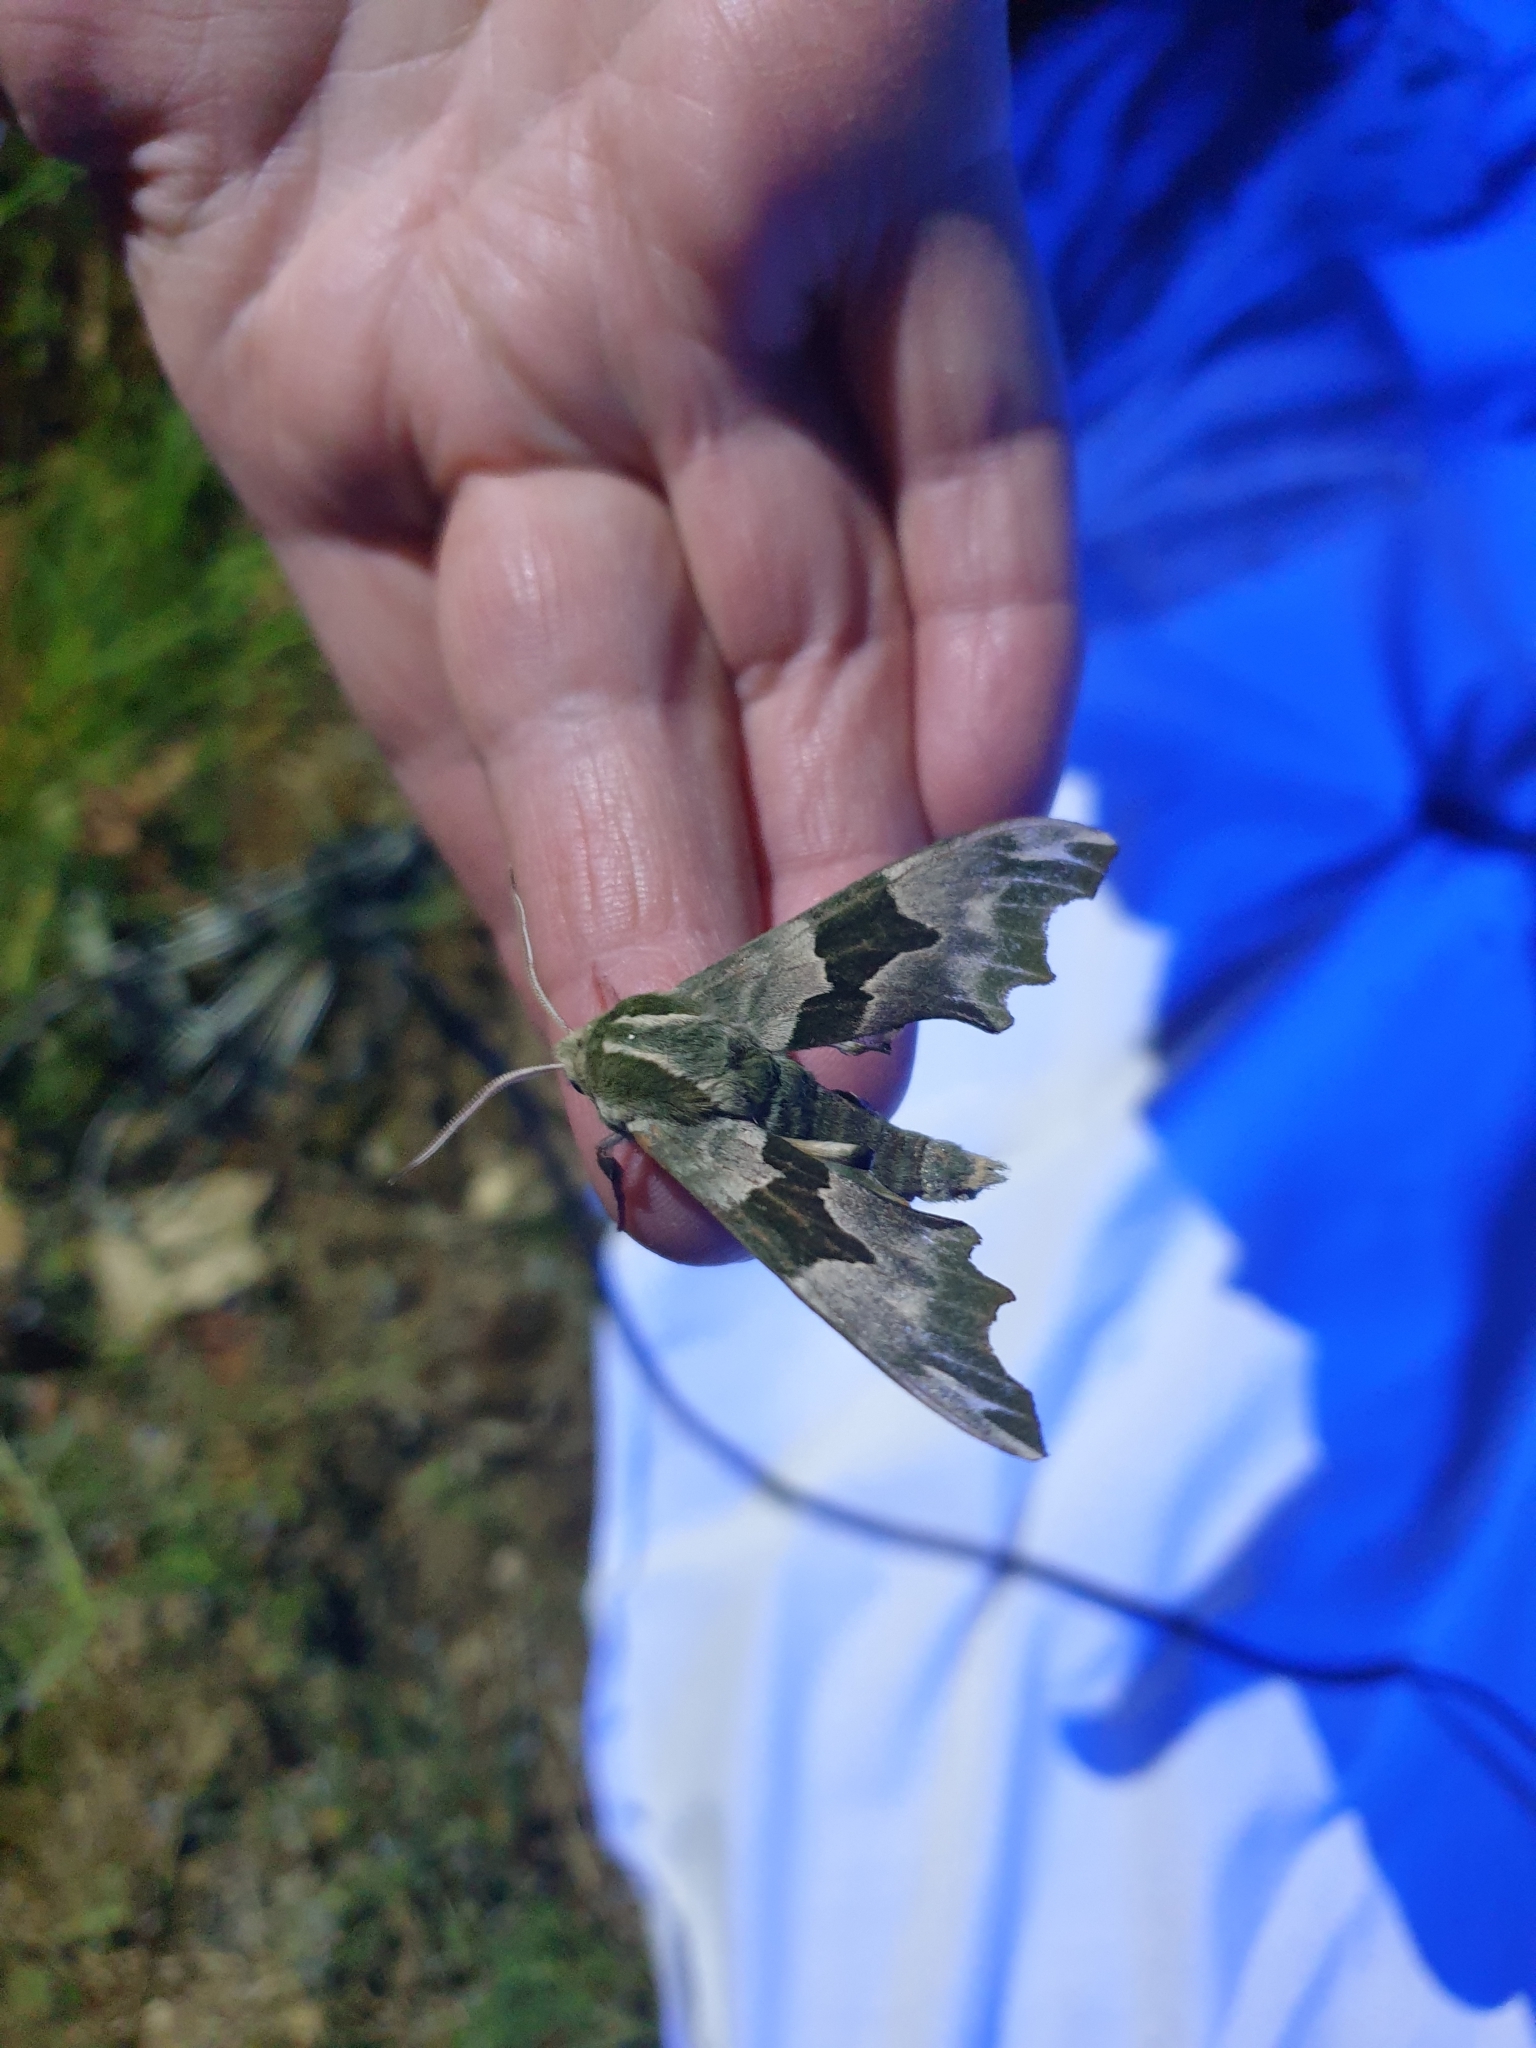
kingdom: Animalia
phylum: Arthropoda
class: Insecta
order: Lepidoptera
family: Sphingidae
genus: Mimas
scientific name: Mimas tiliae
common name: Lime hawk-moth
